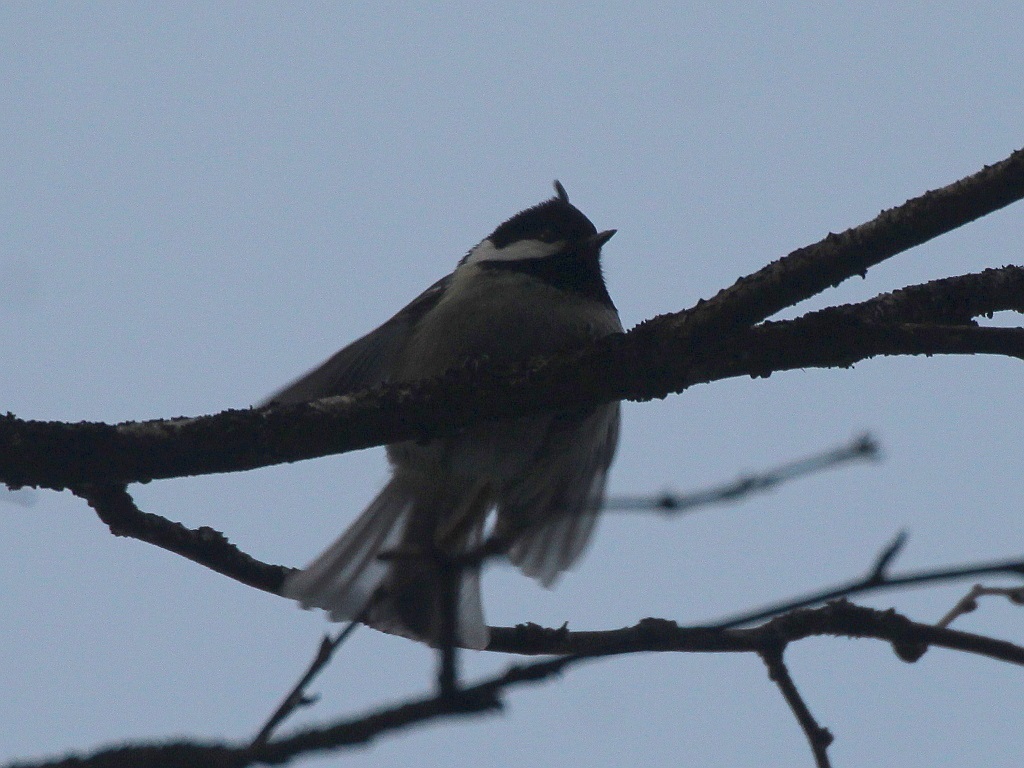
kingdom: Animalia
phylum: Chordata
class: Aves
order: Passeriformes
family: Paridae
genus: Periparus
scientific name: Periparus ater
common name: Coal tit
